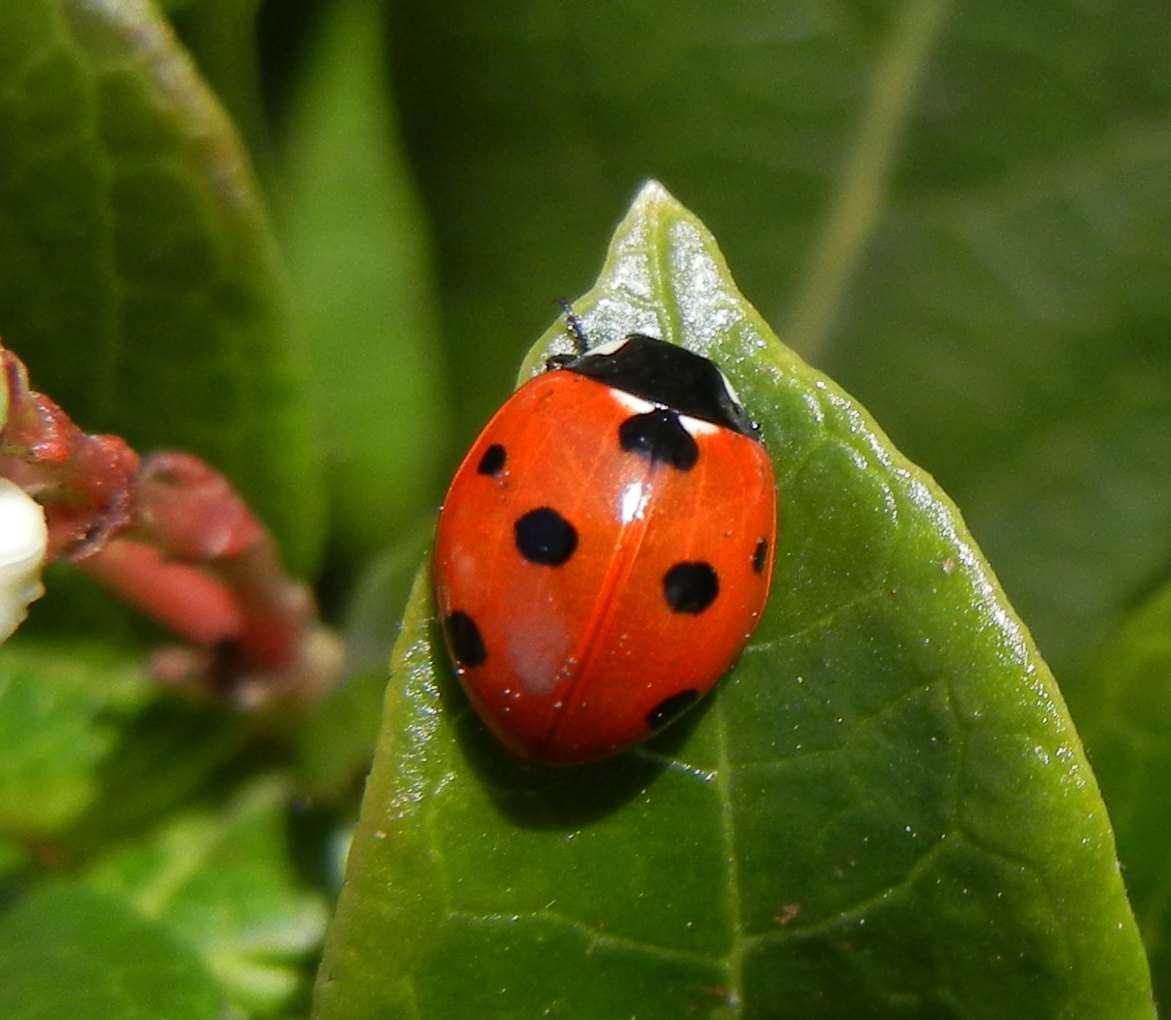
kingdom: Animalia
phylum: Arthropoda
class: Insecta
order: Coleoptera
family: Coccinellidae
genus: Coccinella
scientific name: Coccinella septempunctata
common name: Sevenspotted lady beetle
